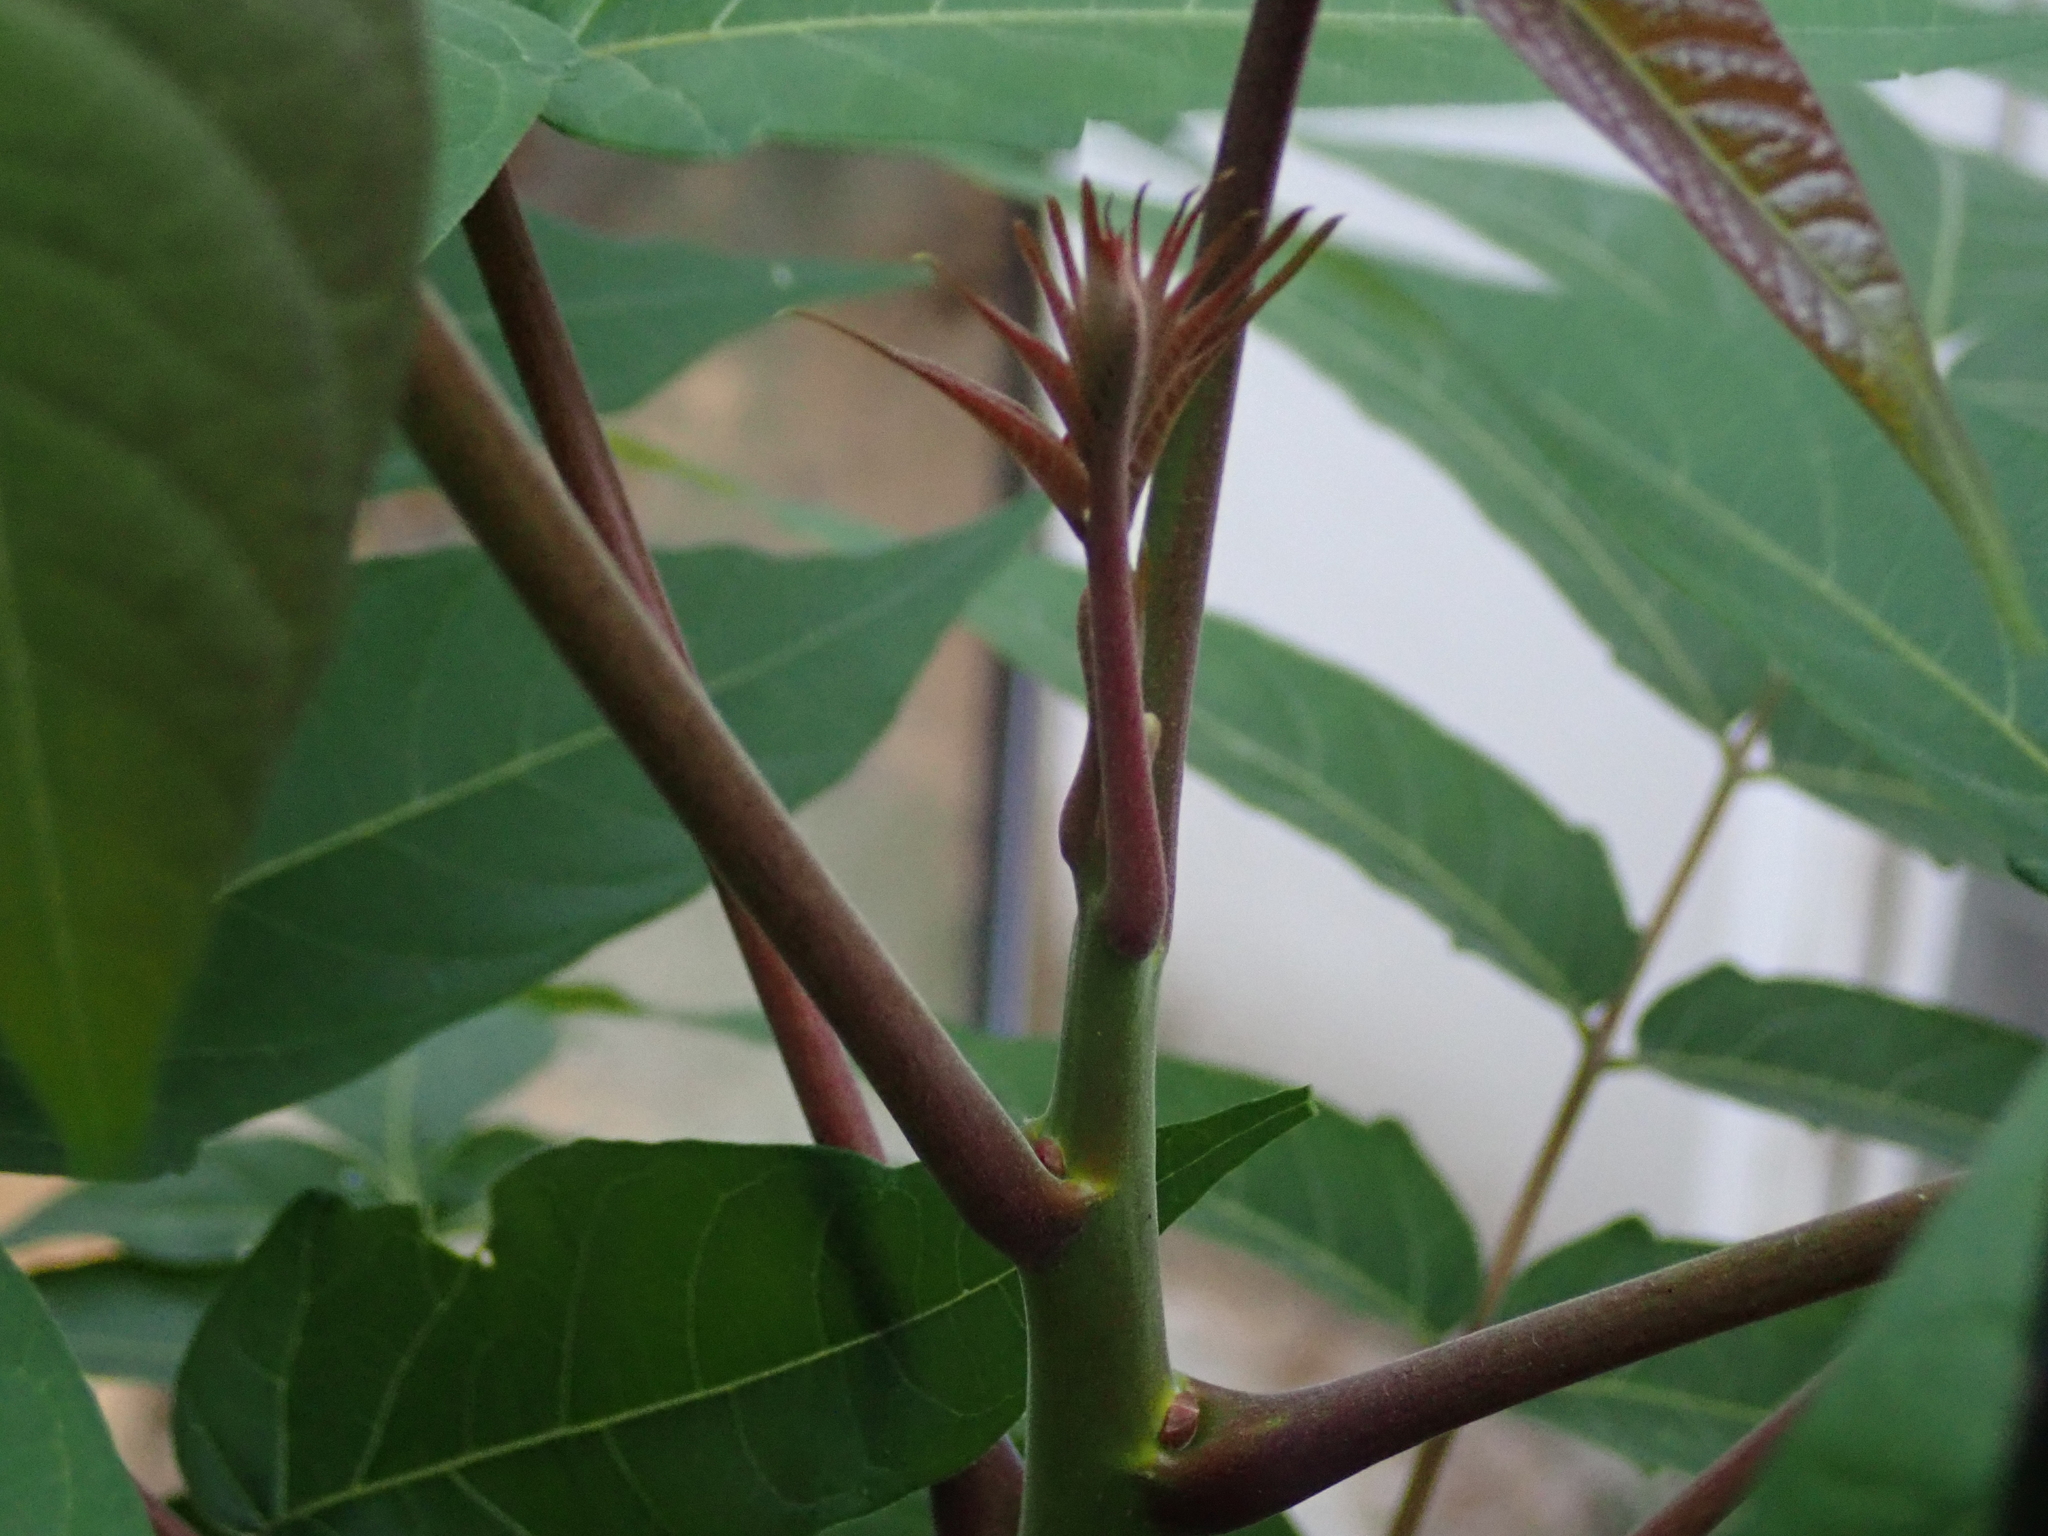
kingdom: Plantae
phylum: Tracheophyta
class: Magnoliopsida
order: Sapindales
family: Simaroubaceae
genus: Ailanthus
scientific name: Ailanthus altissima
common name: Tree-of-heaven
